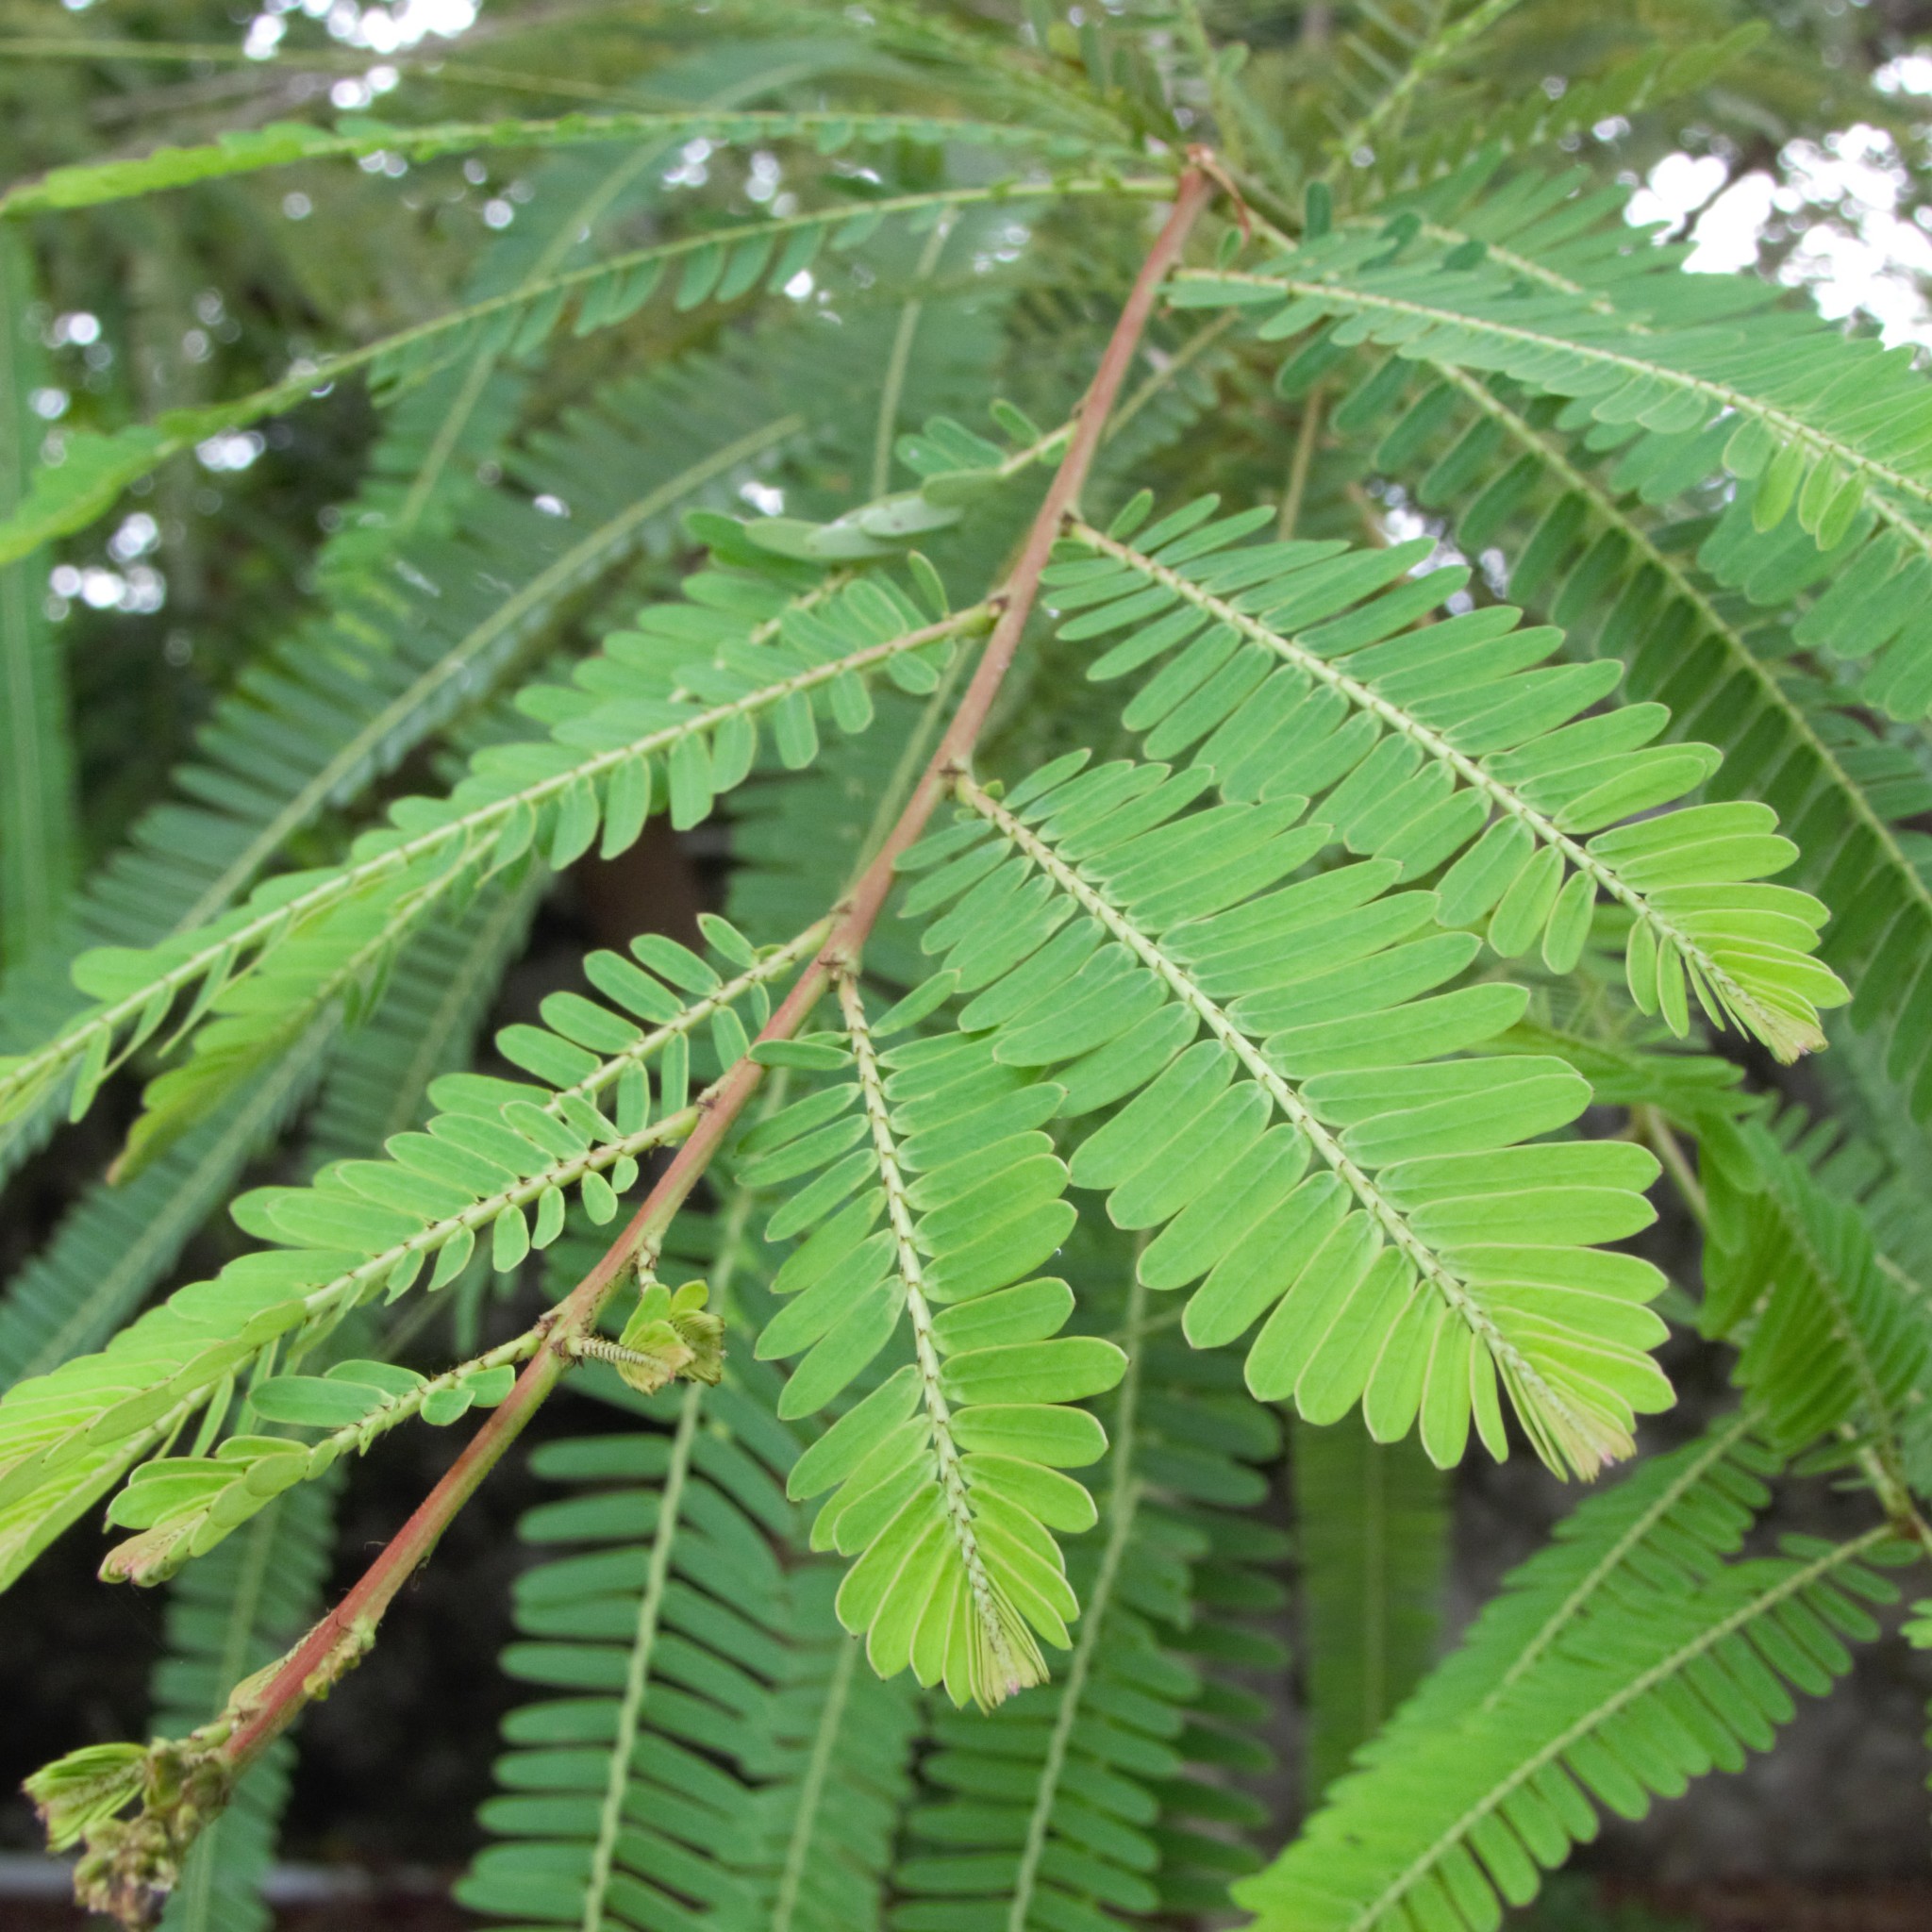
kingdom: Plantae
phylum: Tracheophyta
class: Magnoliopsida
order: Malpighiales
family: Phyllanthaceae
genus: Phyllanthus
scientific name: Phyllanthus emblica
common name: Indian gooseberry
